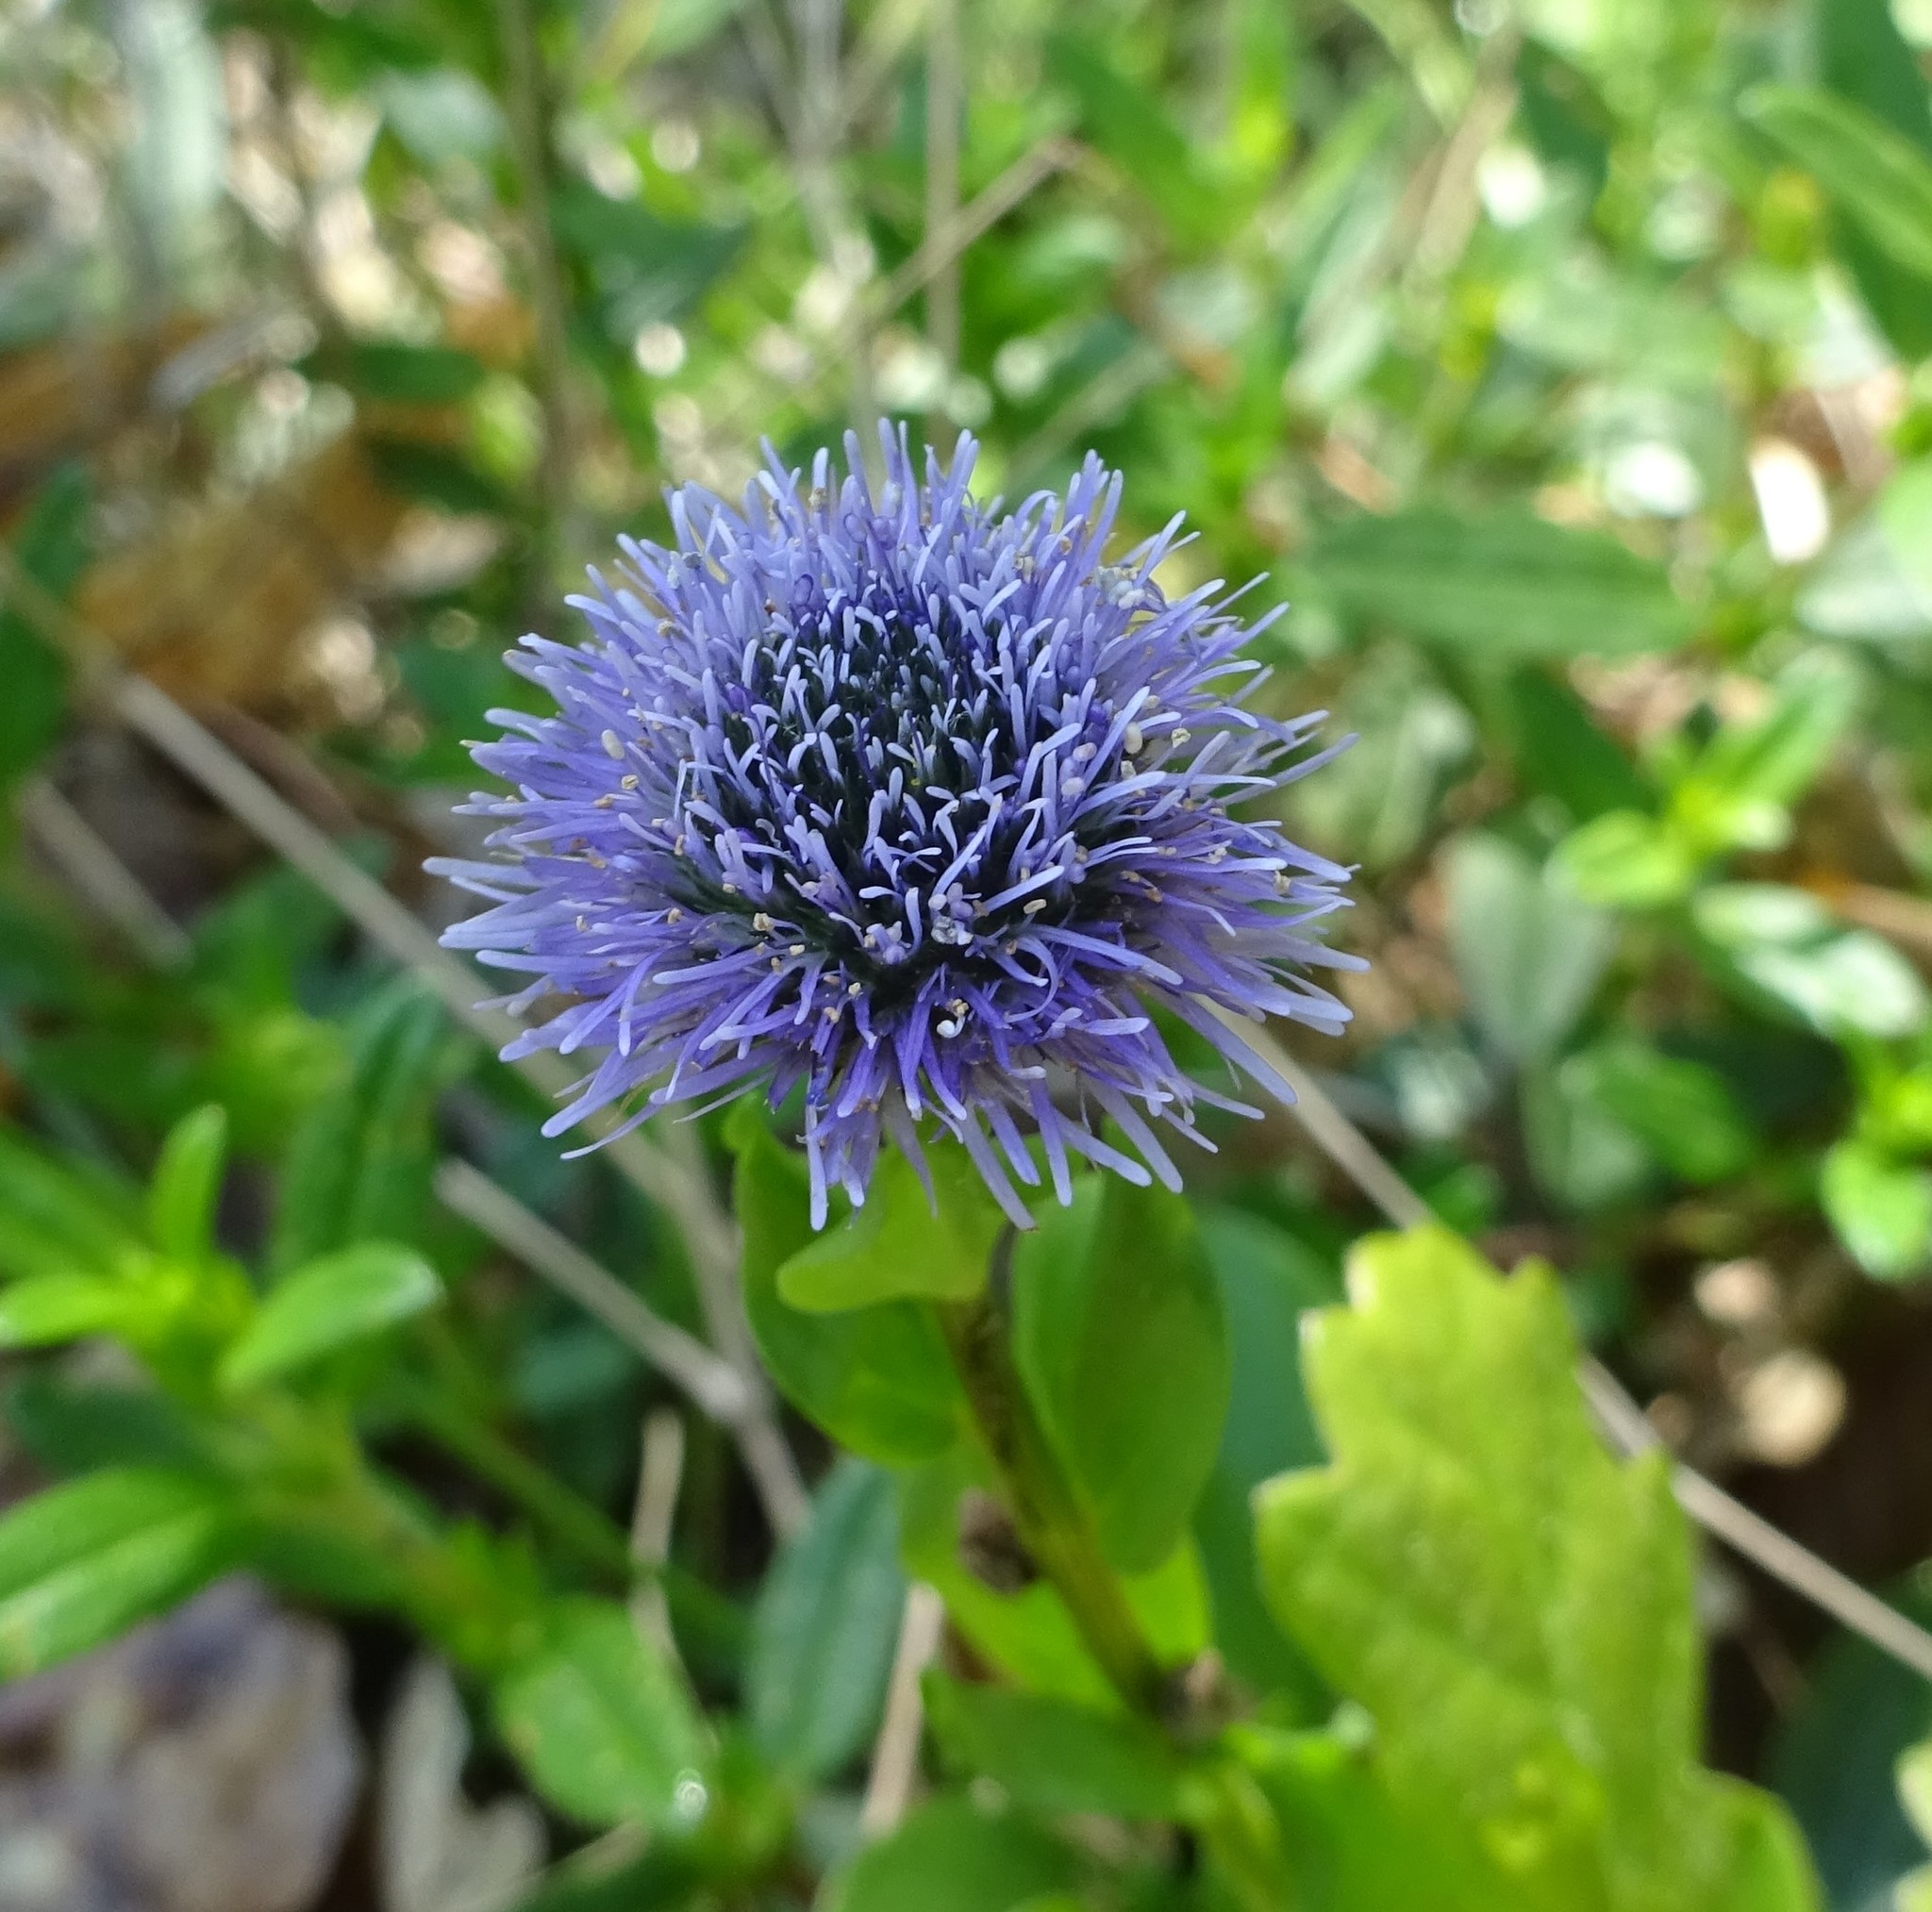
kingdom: Plantae
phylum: Tracheophyta
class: Magnoliopsida
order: Lamiales
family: Plantaginaceae
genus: Globularia
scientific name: Globularia bisnagarica
